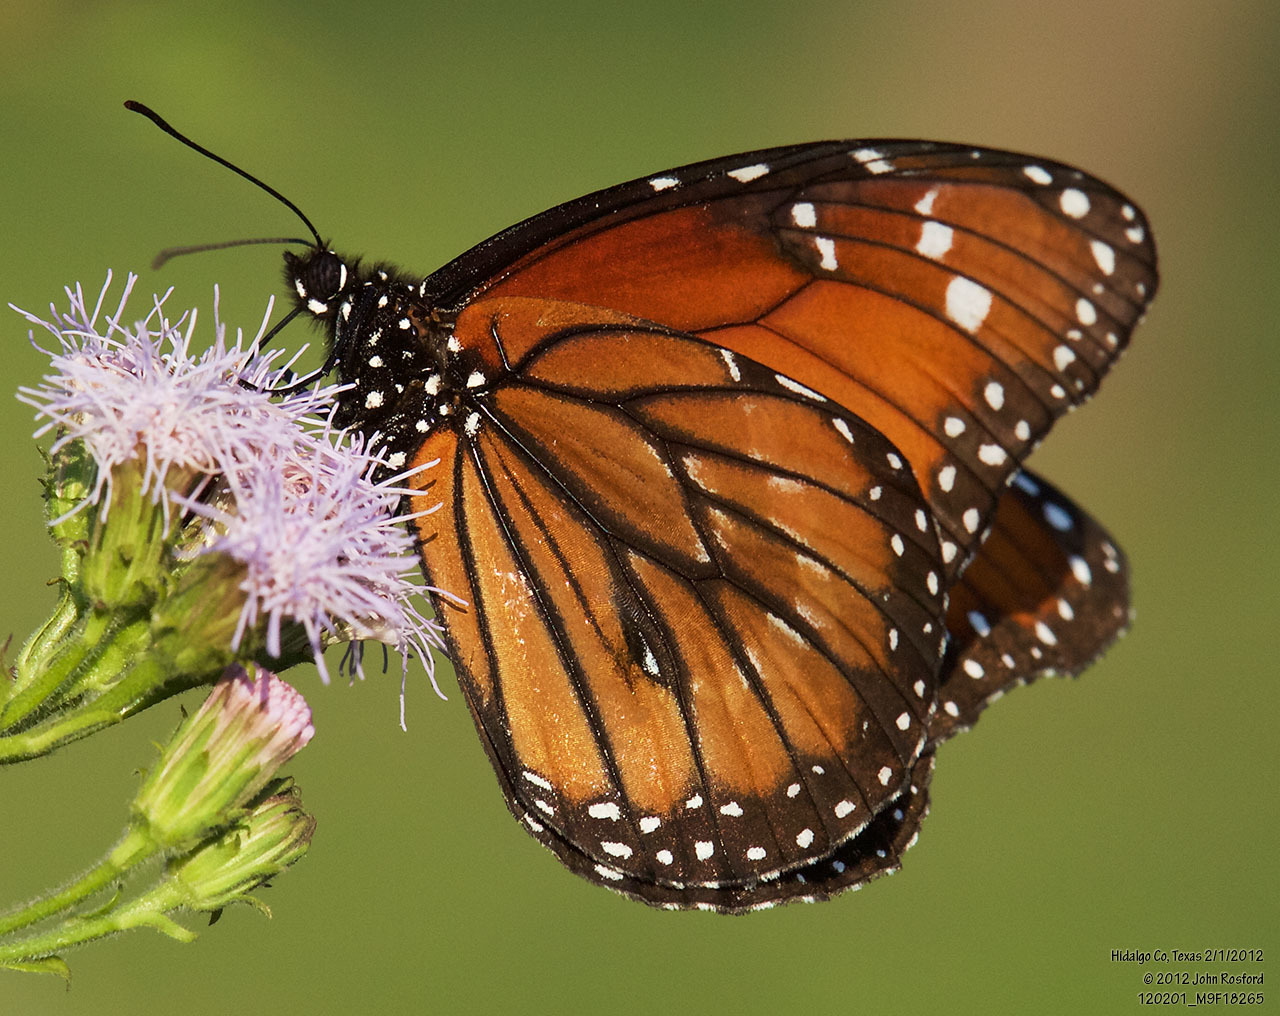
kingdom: Animalia
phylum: Arthropoda
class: Insecta
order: Lepidoptera
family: Nymphalidae
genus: Danaus
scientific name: Danaus eresimus
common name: Soldier
